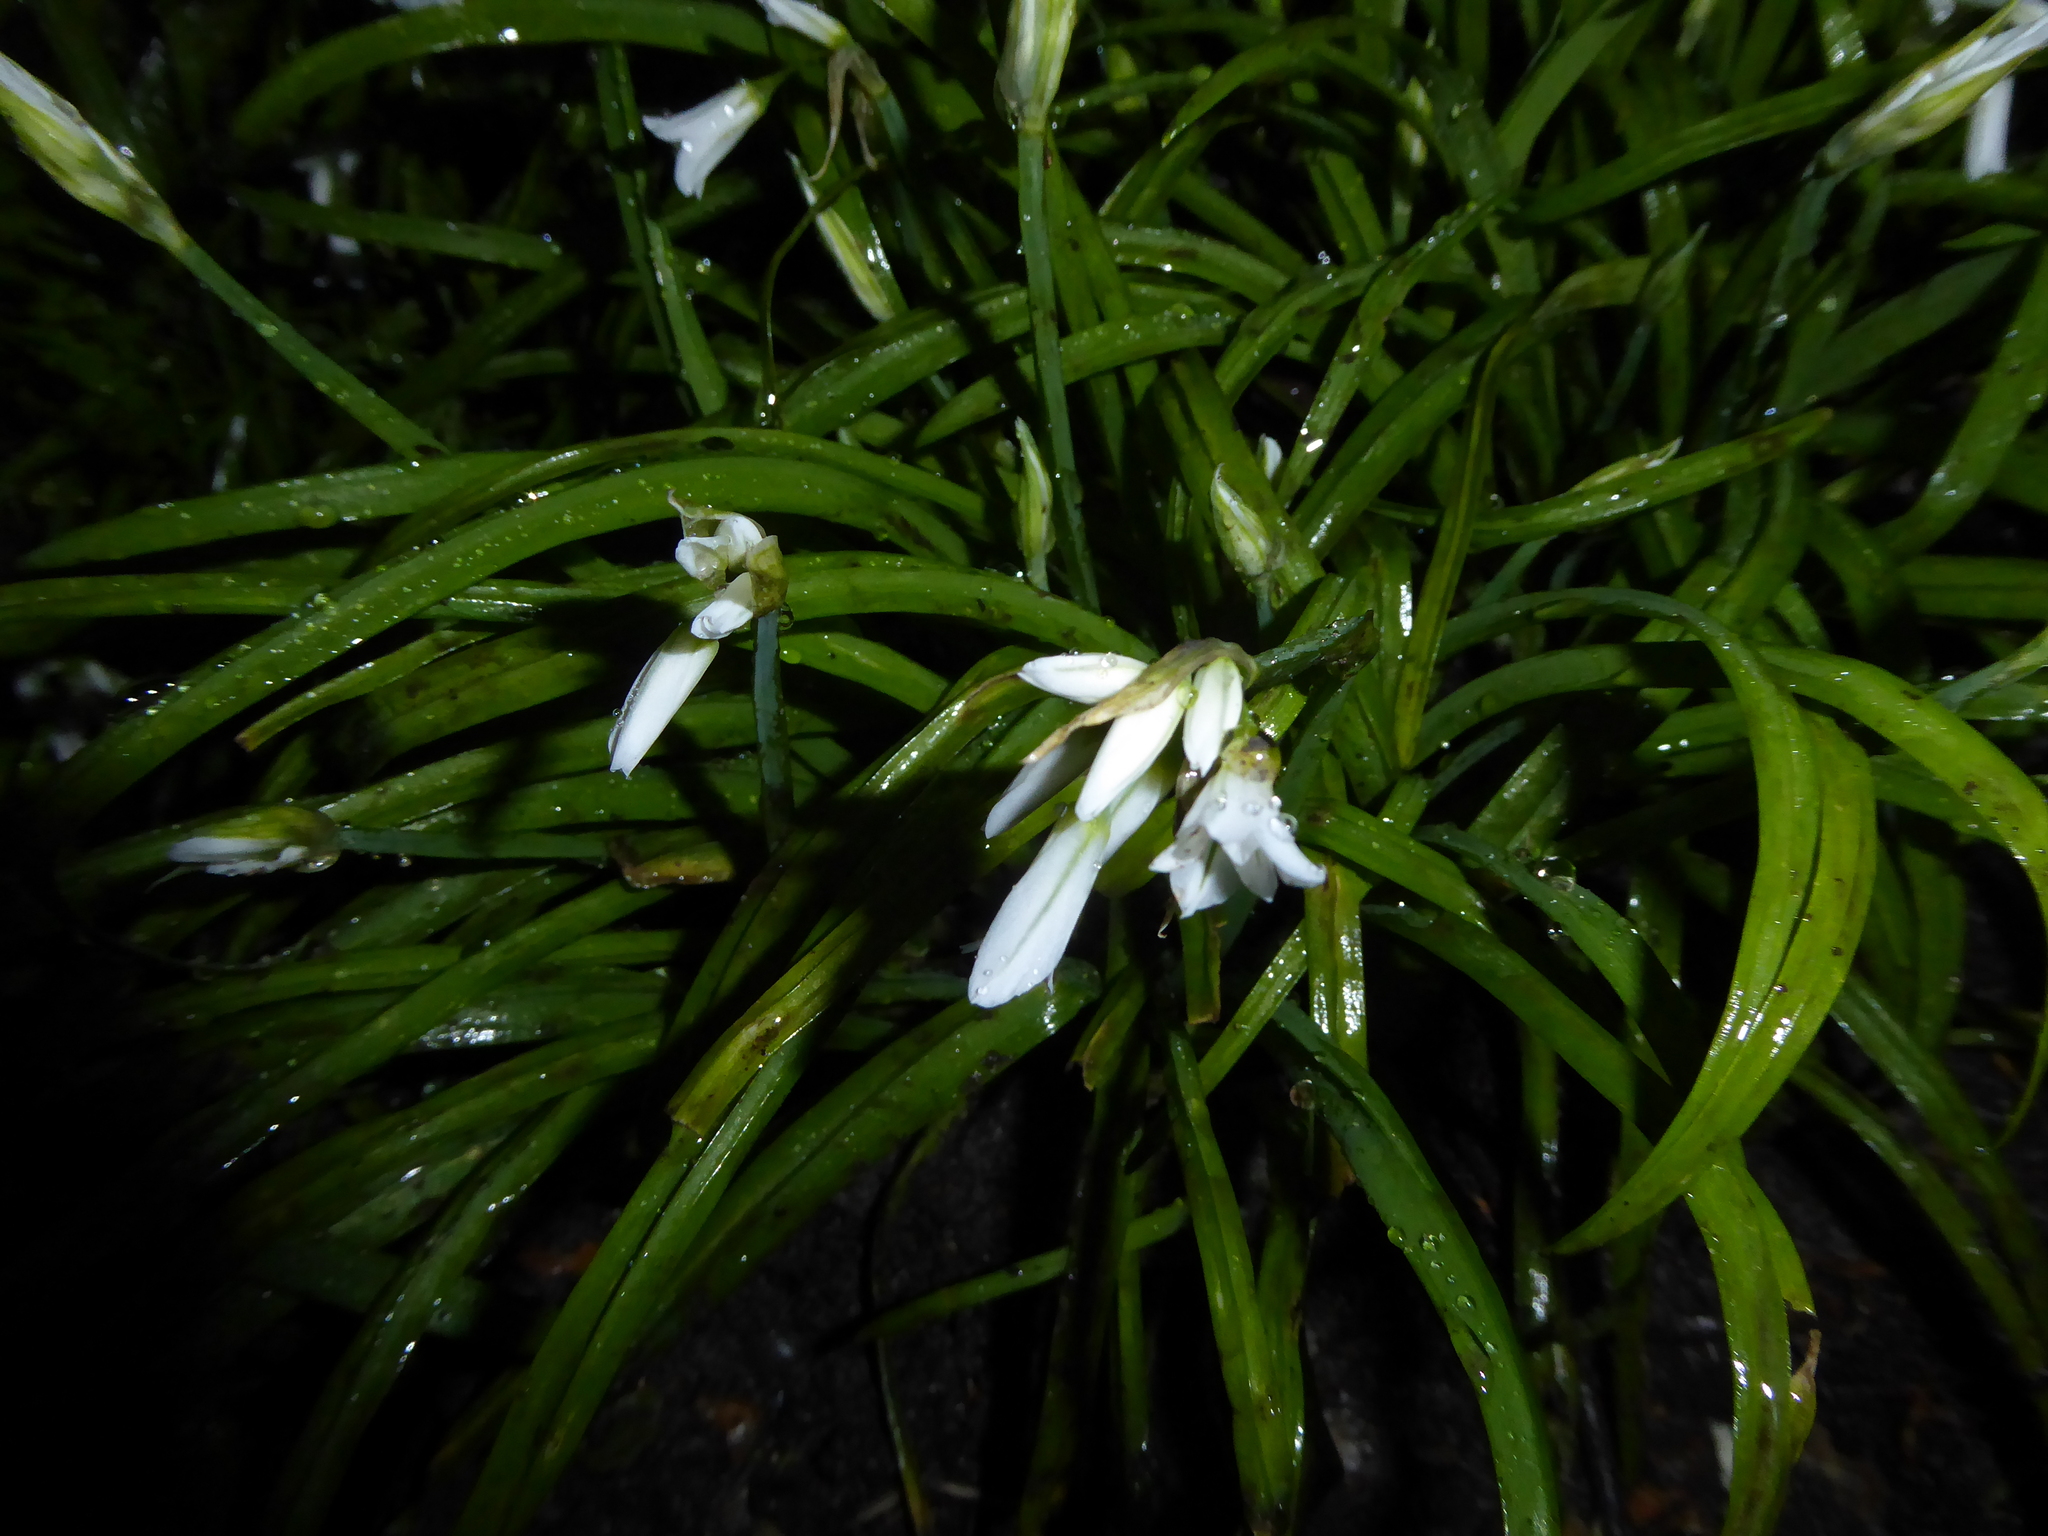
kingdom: Plantae
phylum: Tracheophyta
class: Liliopsida
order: Asparagales
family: Amaryllidaceae
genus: Allium
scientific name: Allium triquetrum
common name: Three-cornered garlic
